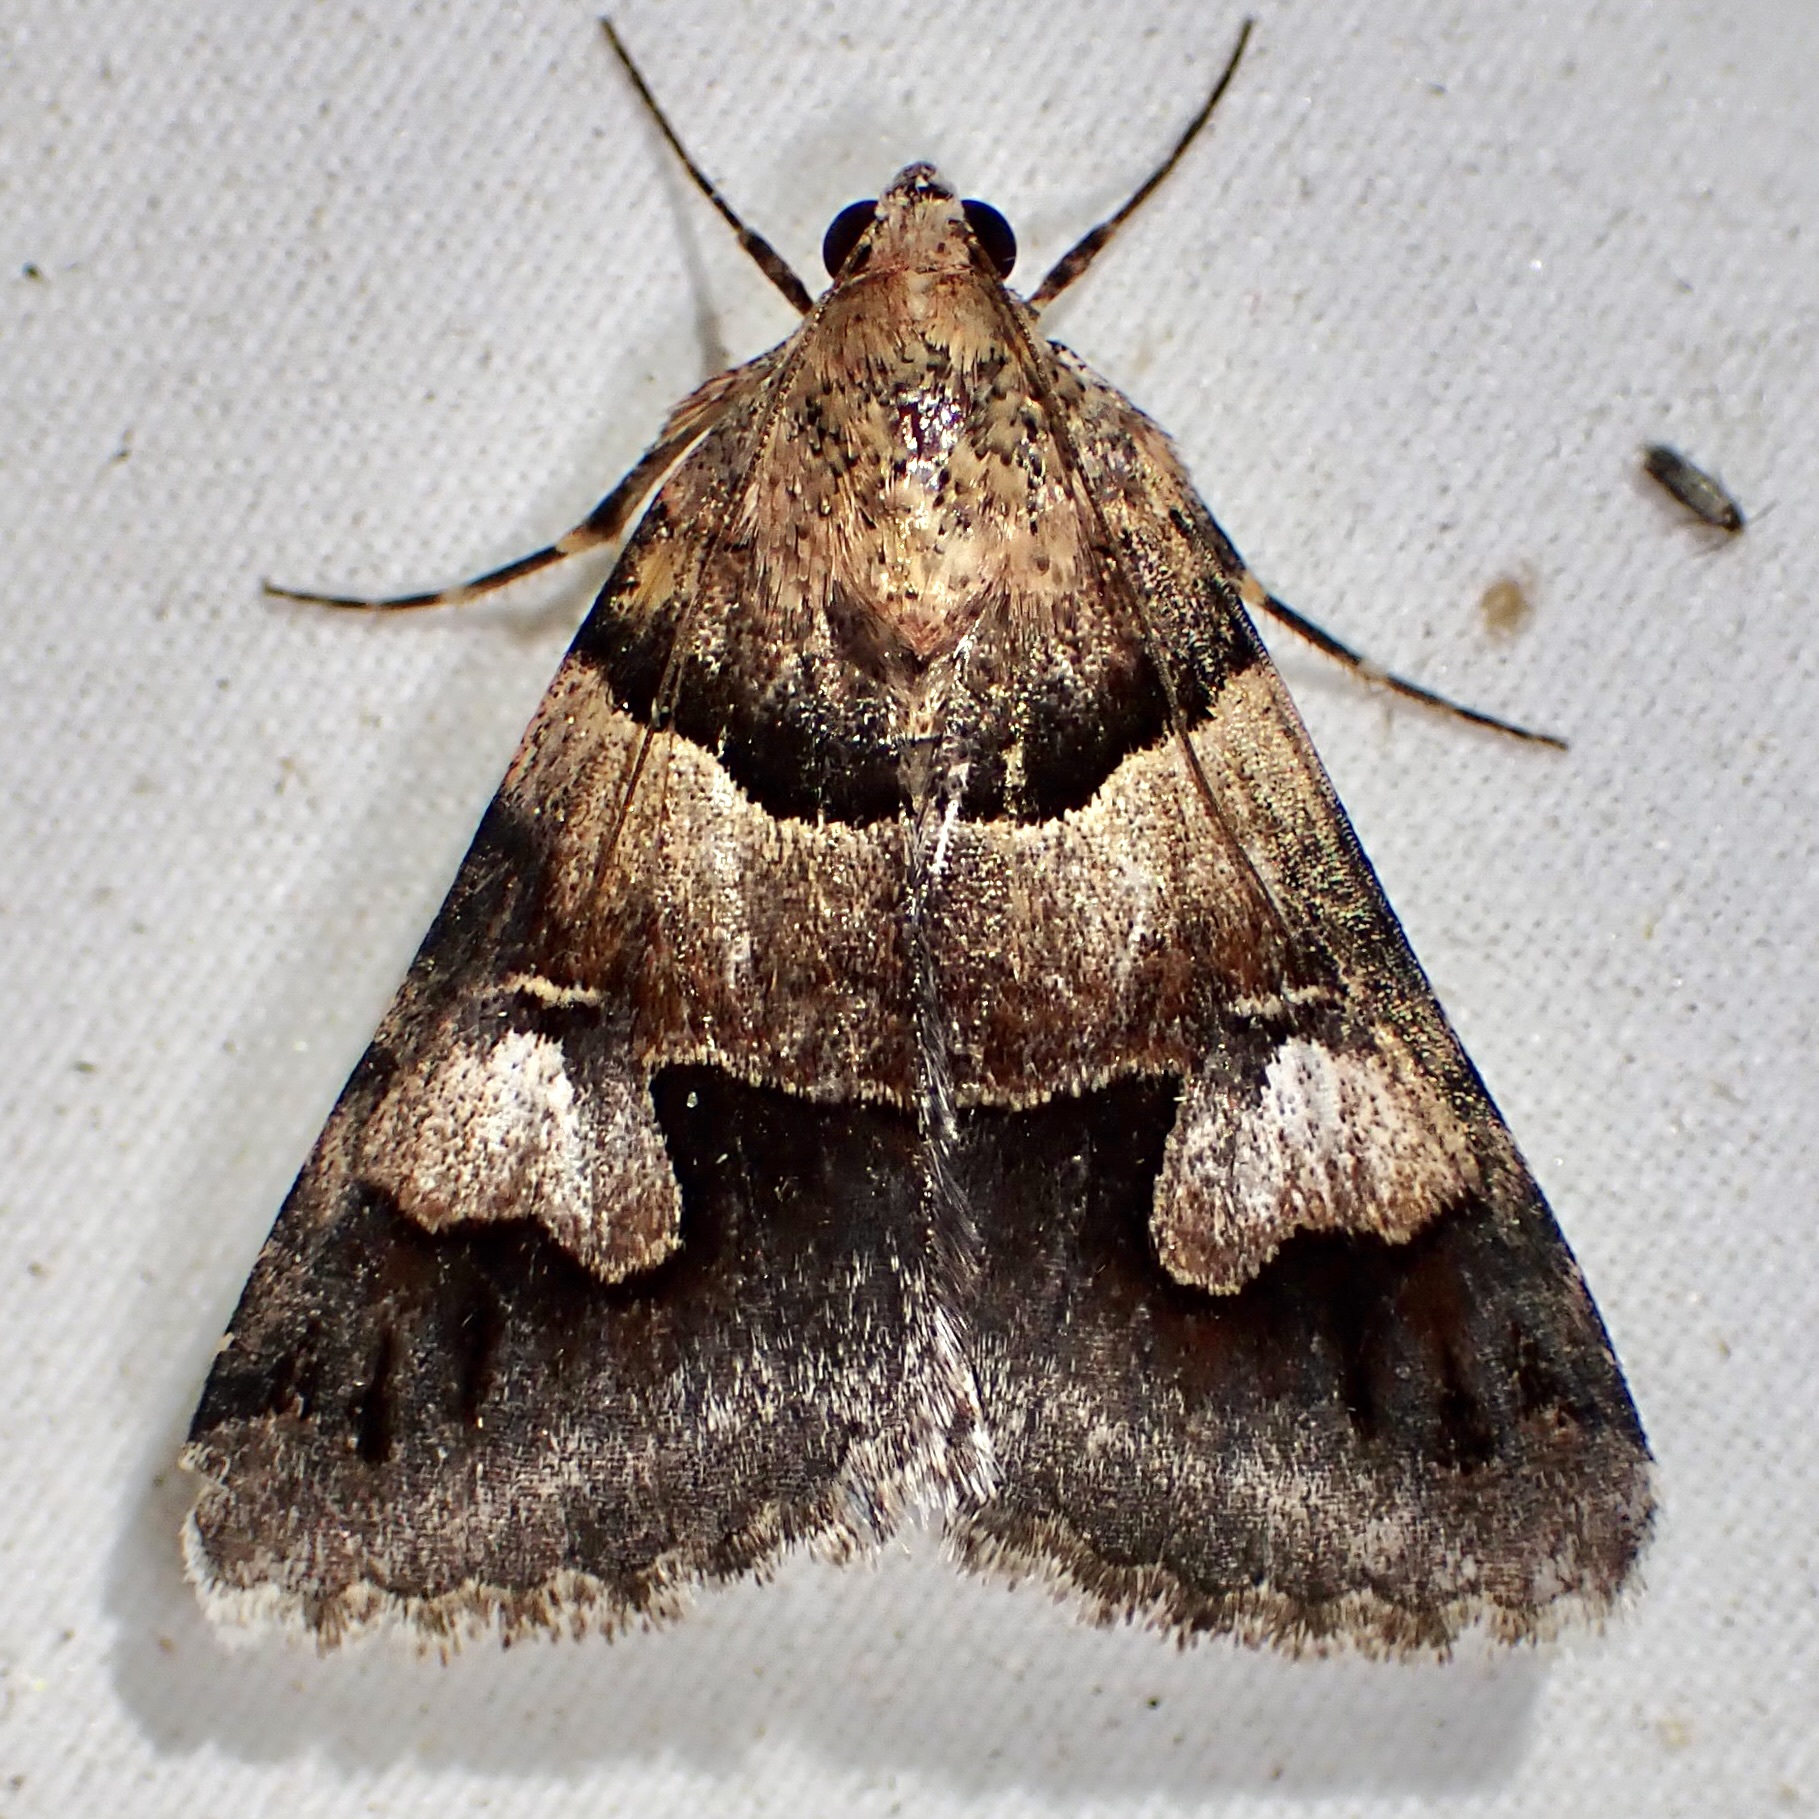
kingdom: Animalia
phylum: Arthropoda
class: Insecta
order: Lepidoptera
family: Erebidae
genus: Drasteria
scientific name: Drasteria pallescens
